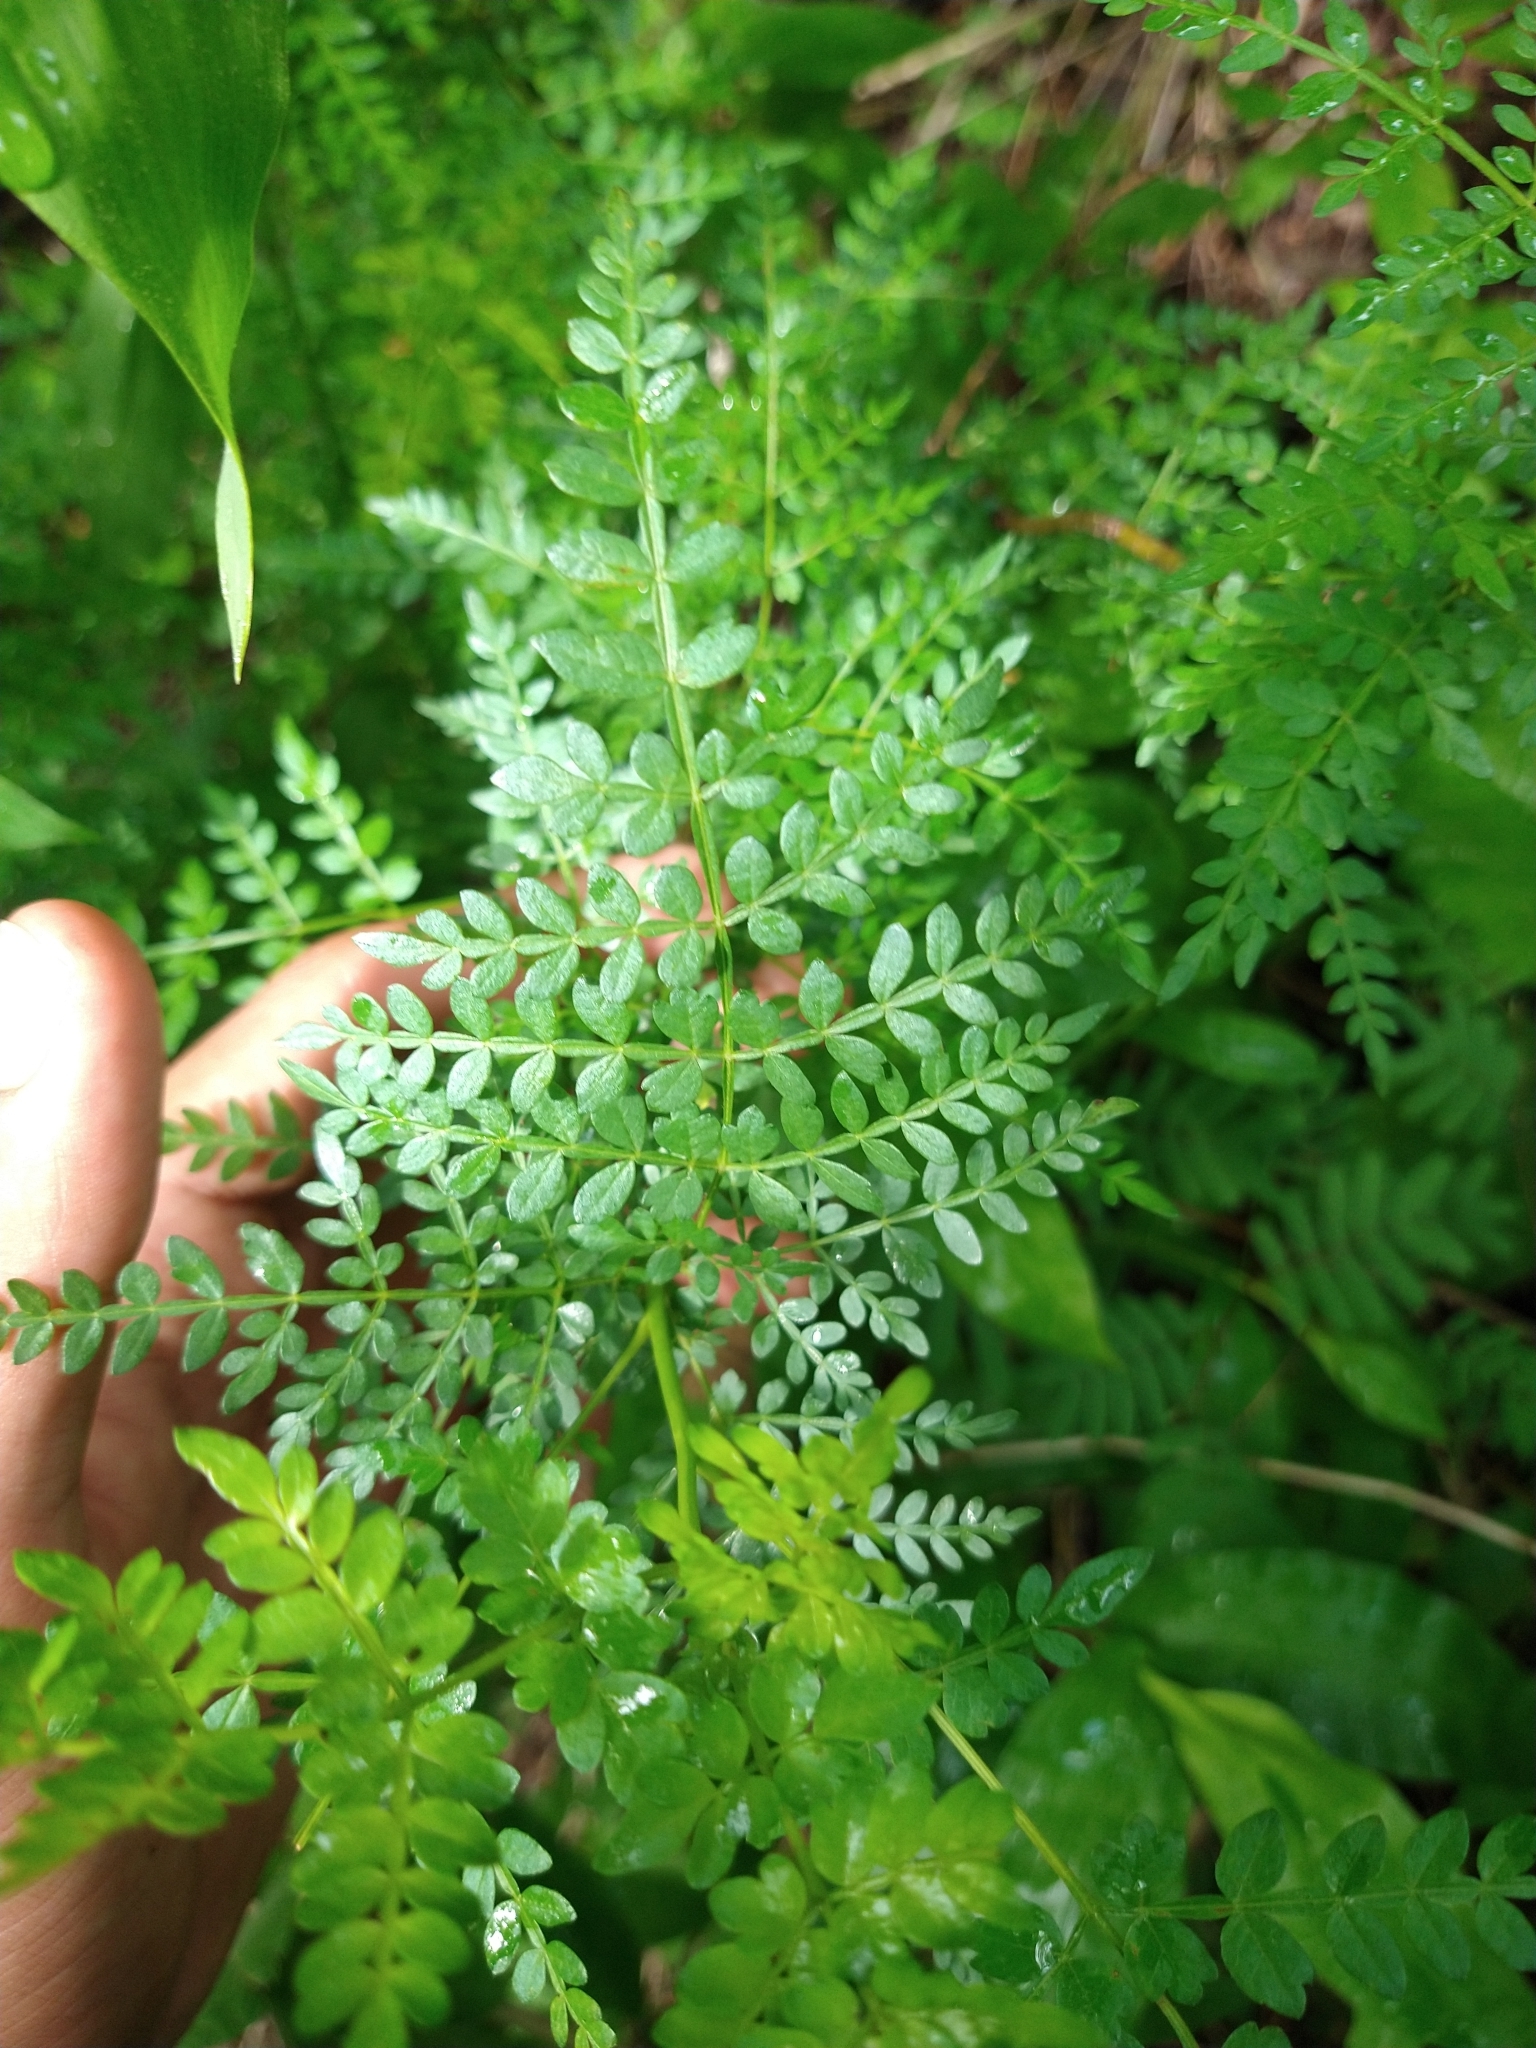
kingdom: Plantae
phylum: Tracheophyta
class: Magnoliopsida
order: Sapindales
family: Burseraceae
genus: Bursera
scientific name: Bursera bipinnata
